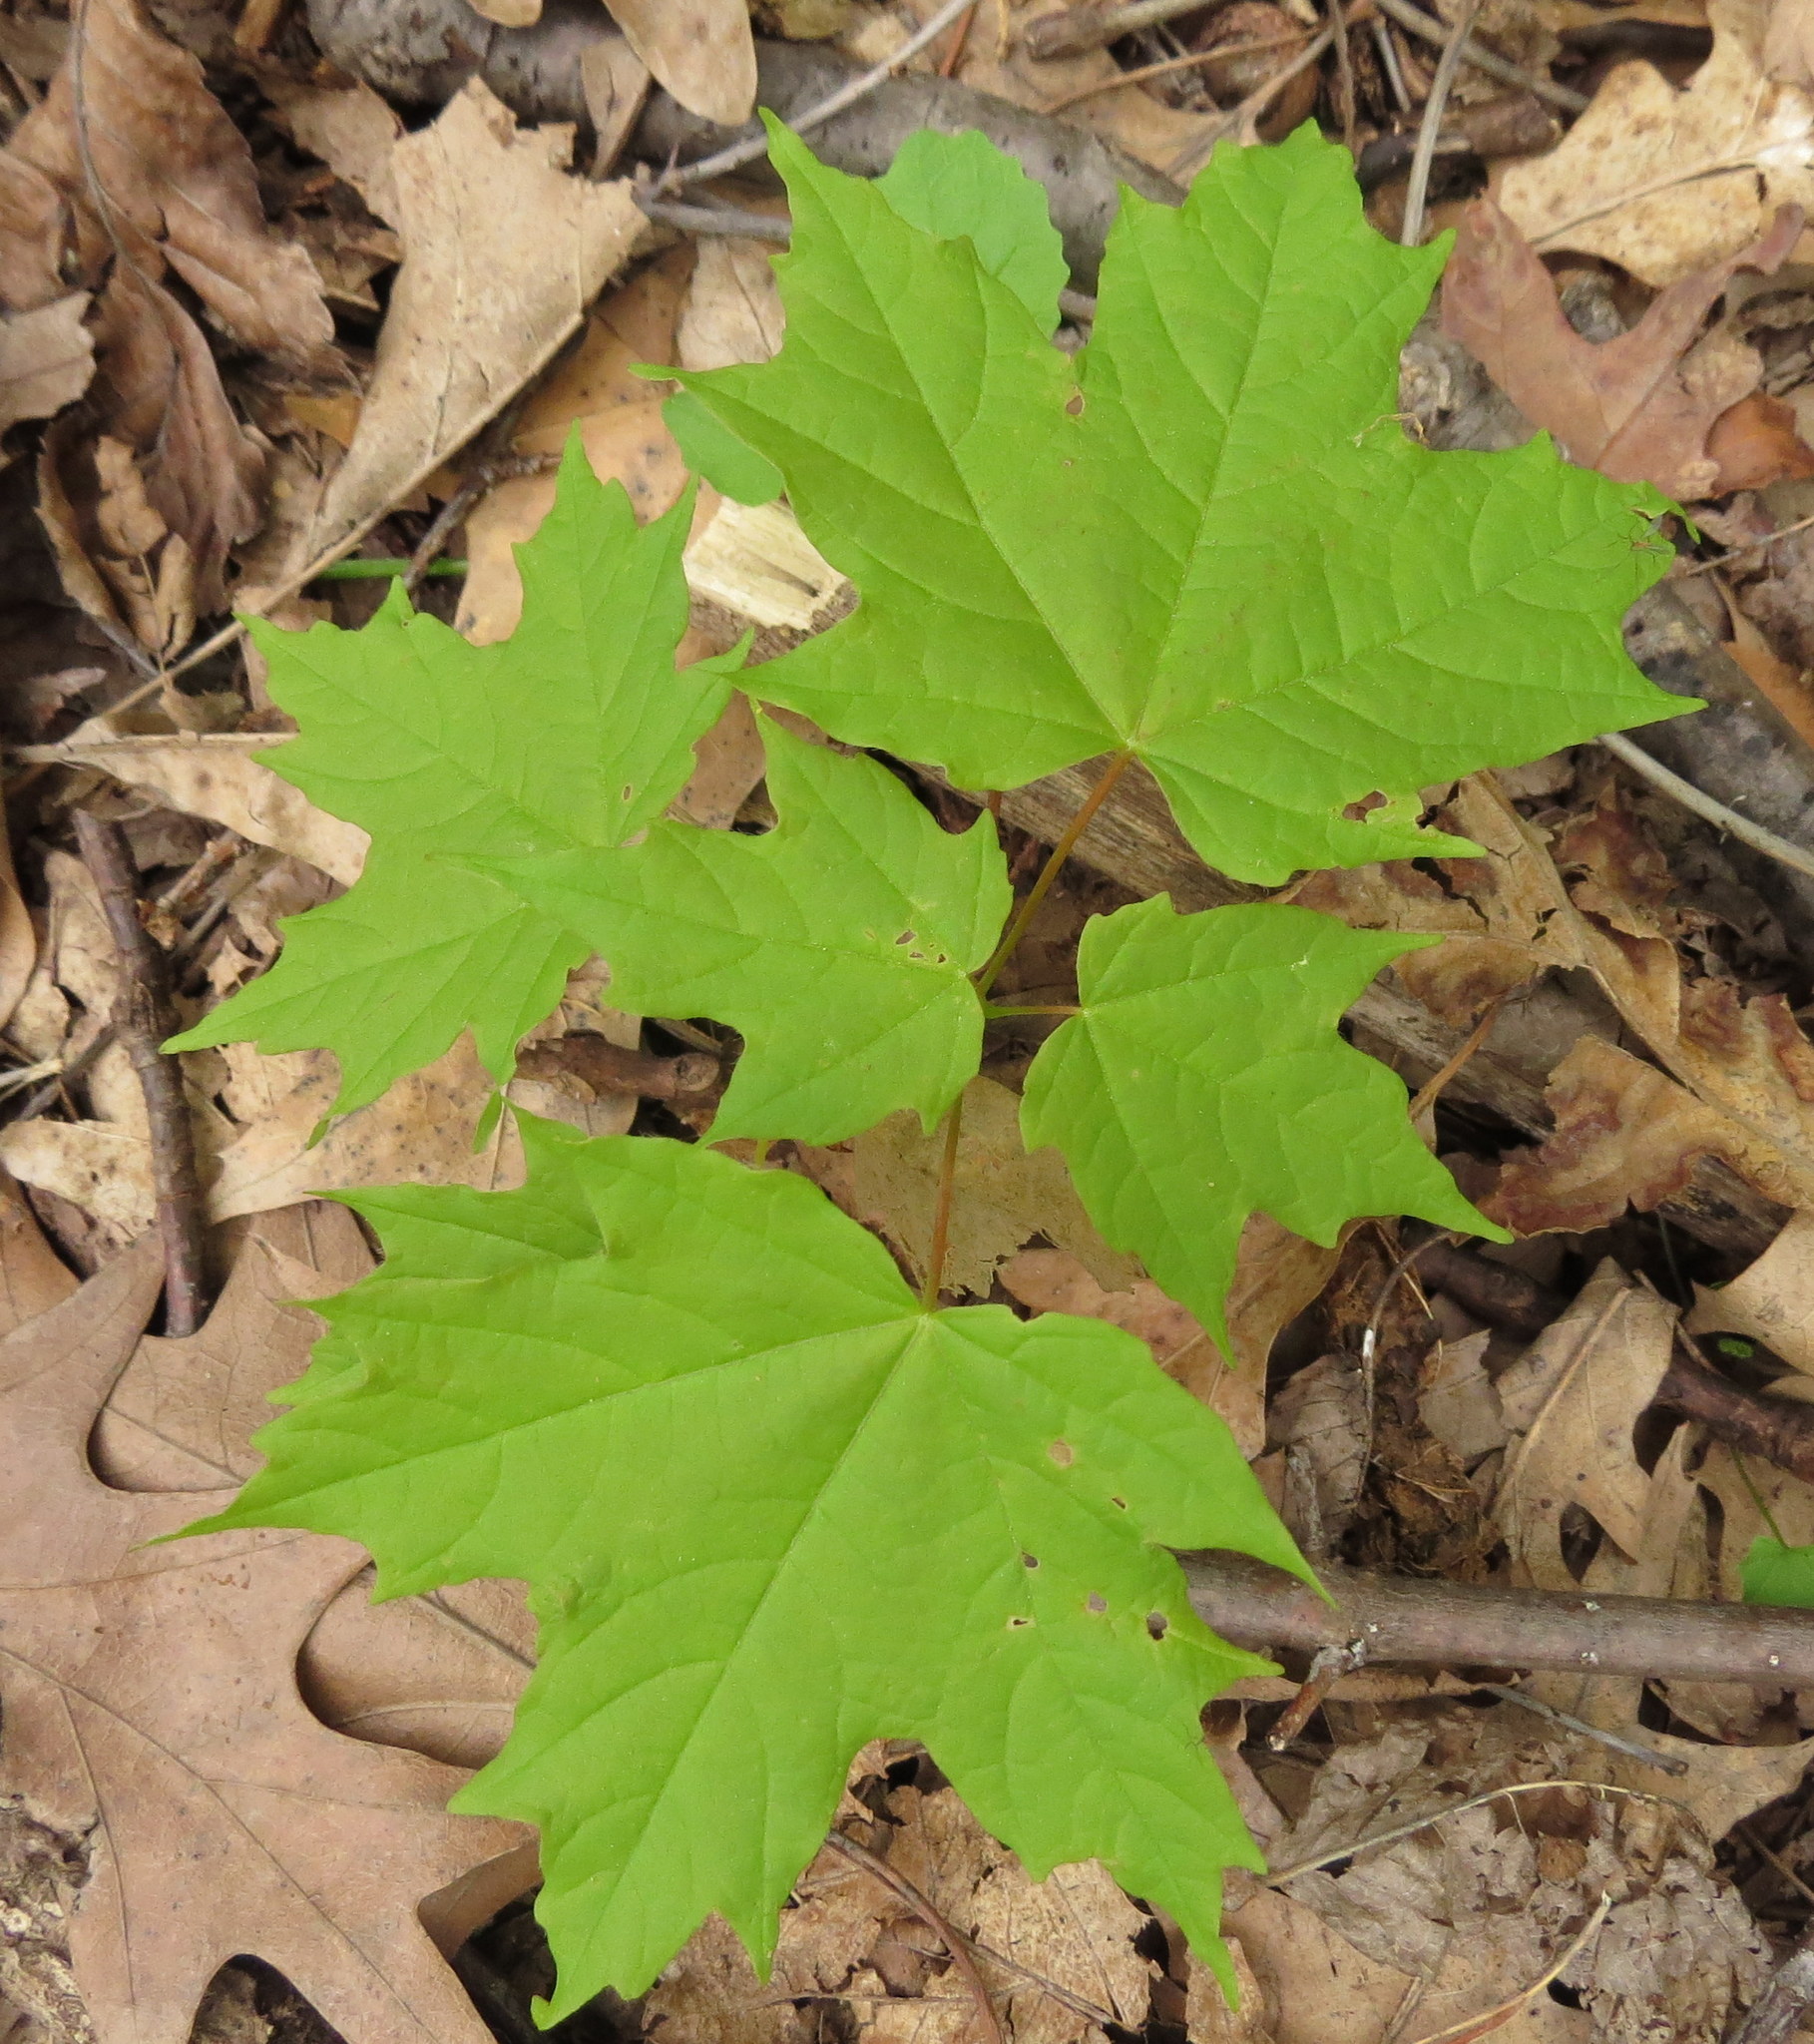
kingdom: Plantae
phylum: Tracheophyta
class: Magnoliopsida
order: Sapindales
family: Sapindaceae
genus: Acer
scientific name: Acer saccharum
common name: Sugar maple
